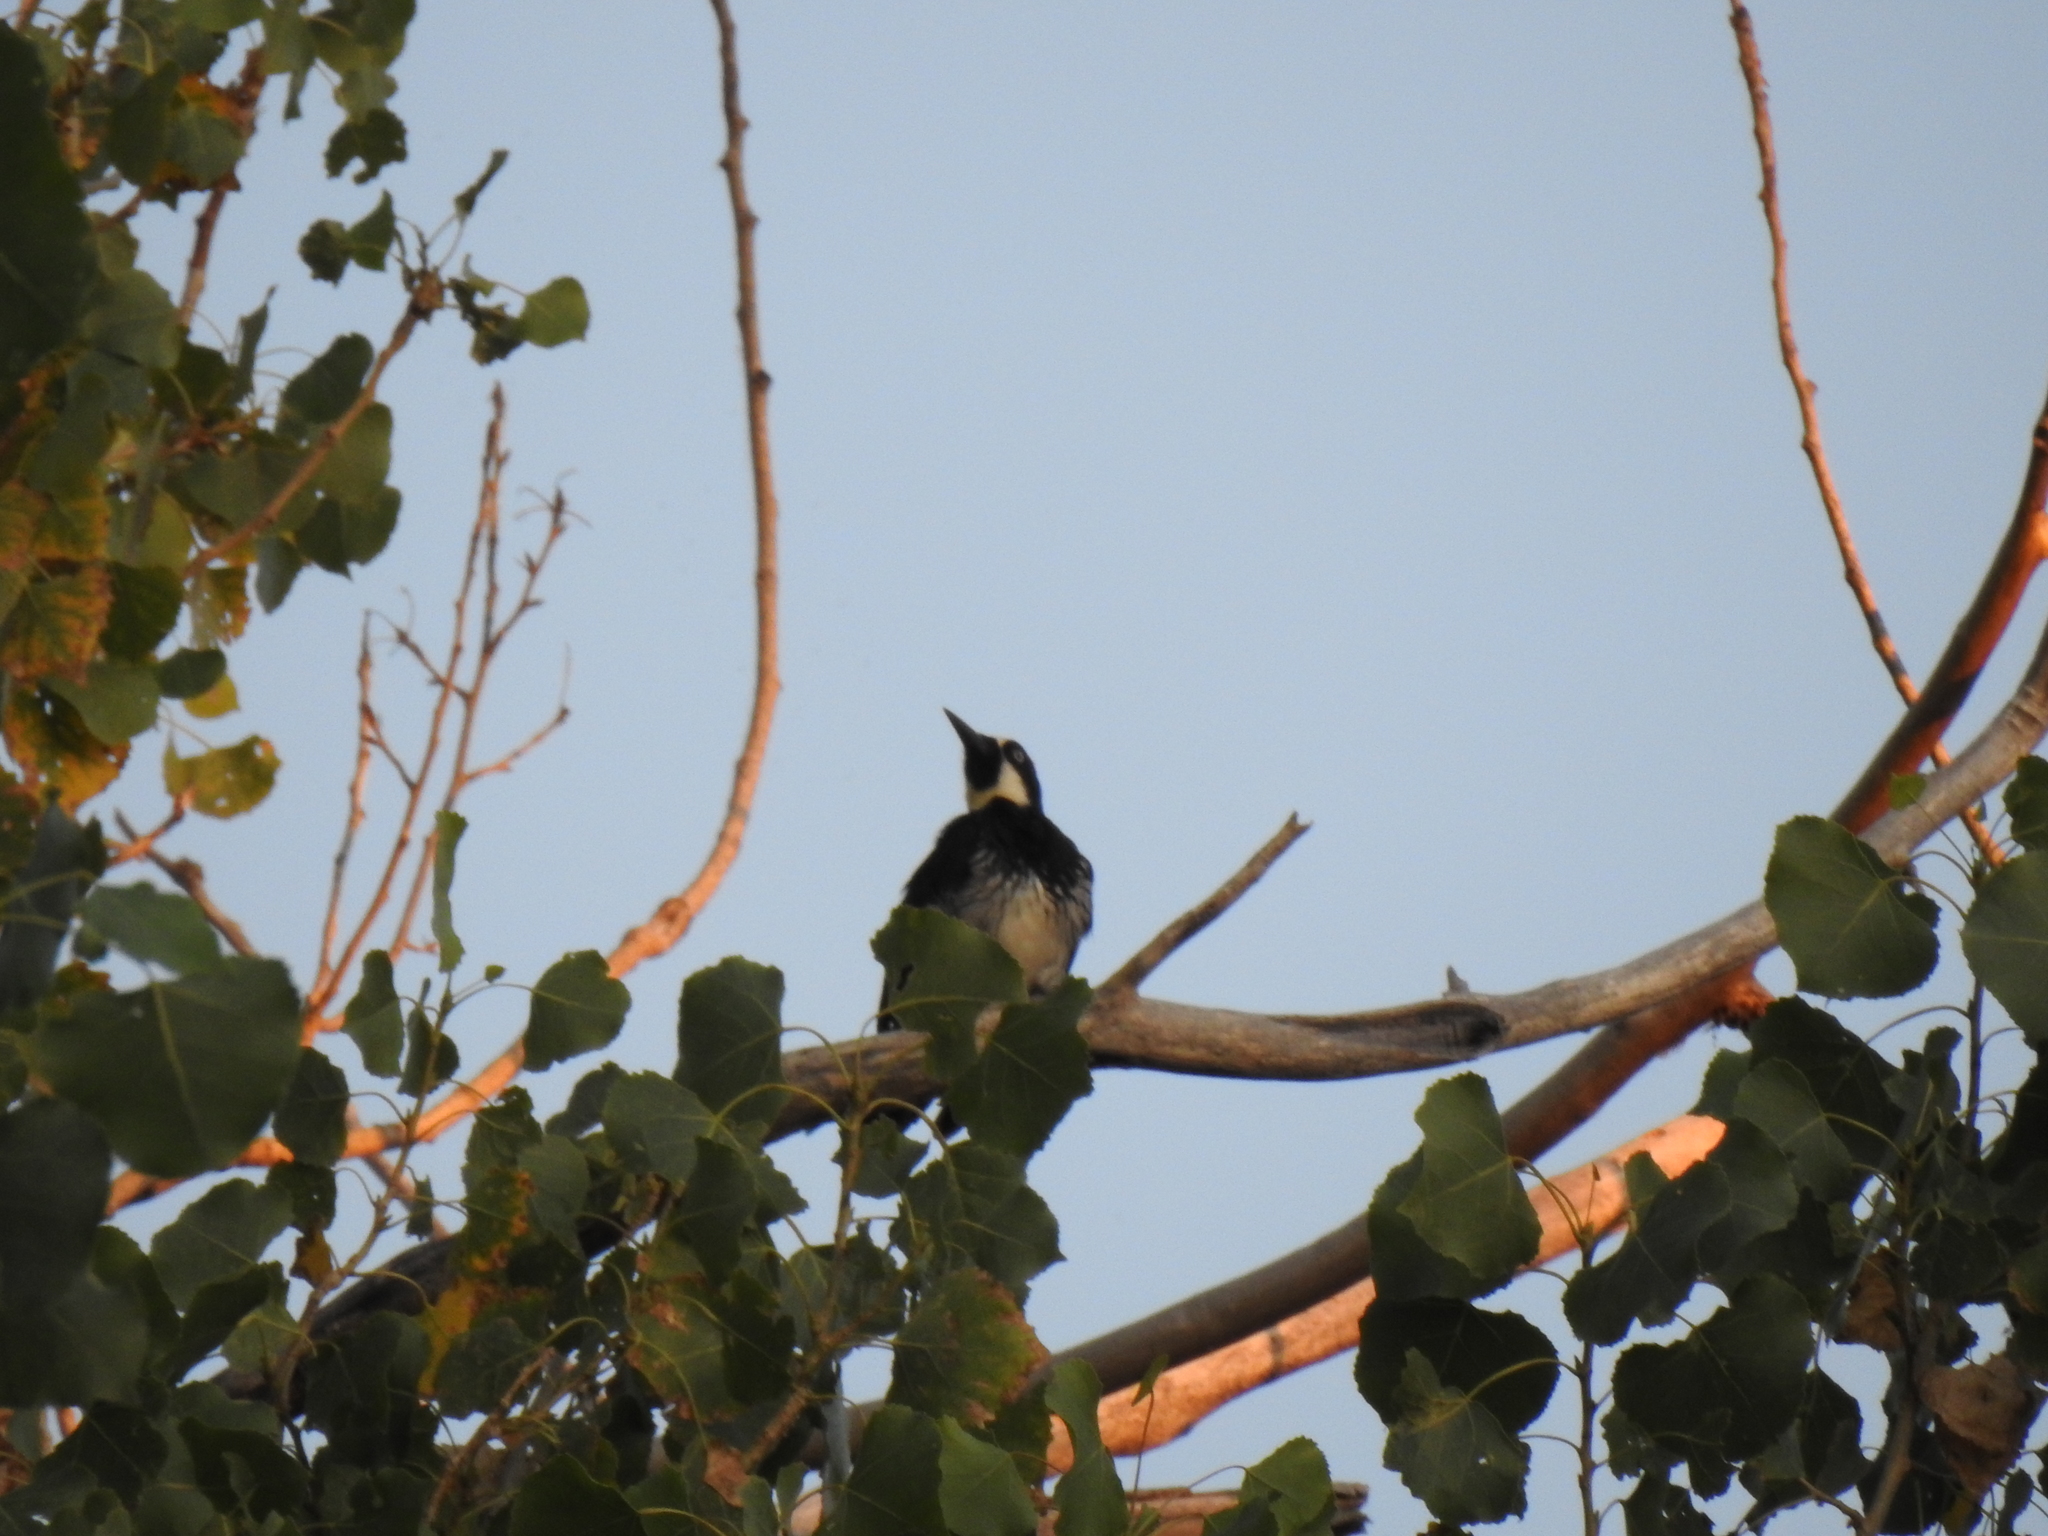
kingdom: Animalia
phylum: Chordata
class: Aves
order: Piciformes
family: Picidae
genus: Melanerpes
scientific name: Melanerpes formicivorus
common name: Acorn woodpecker
